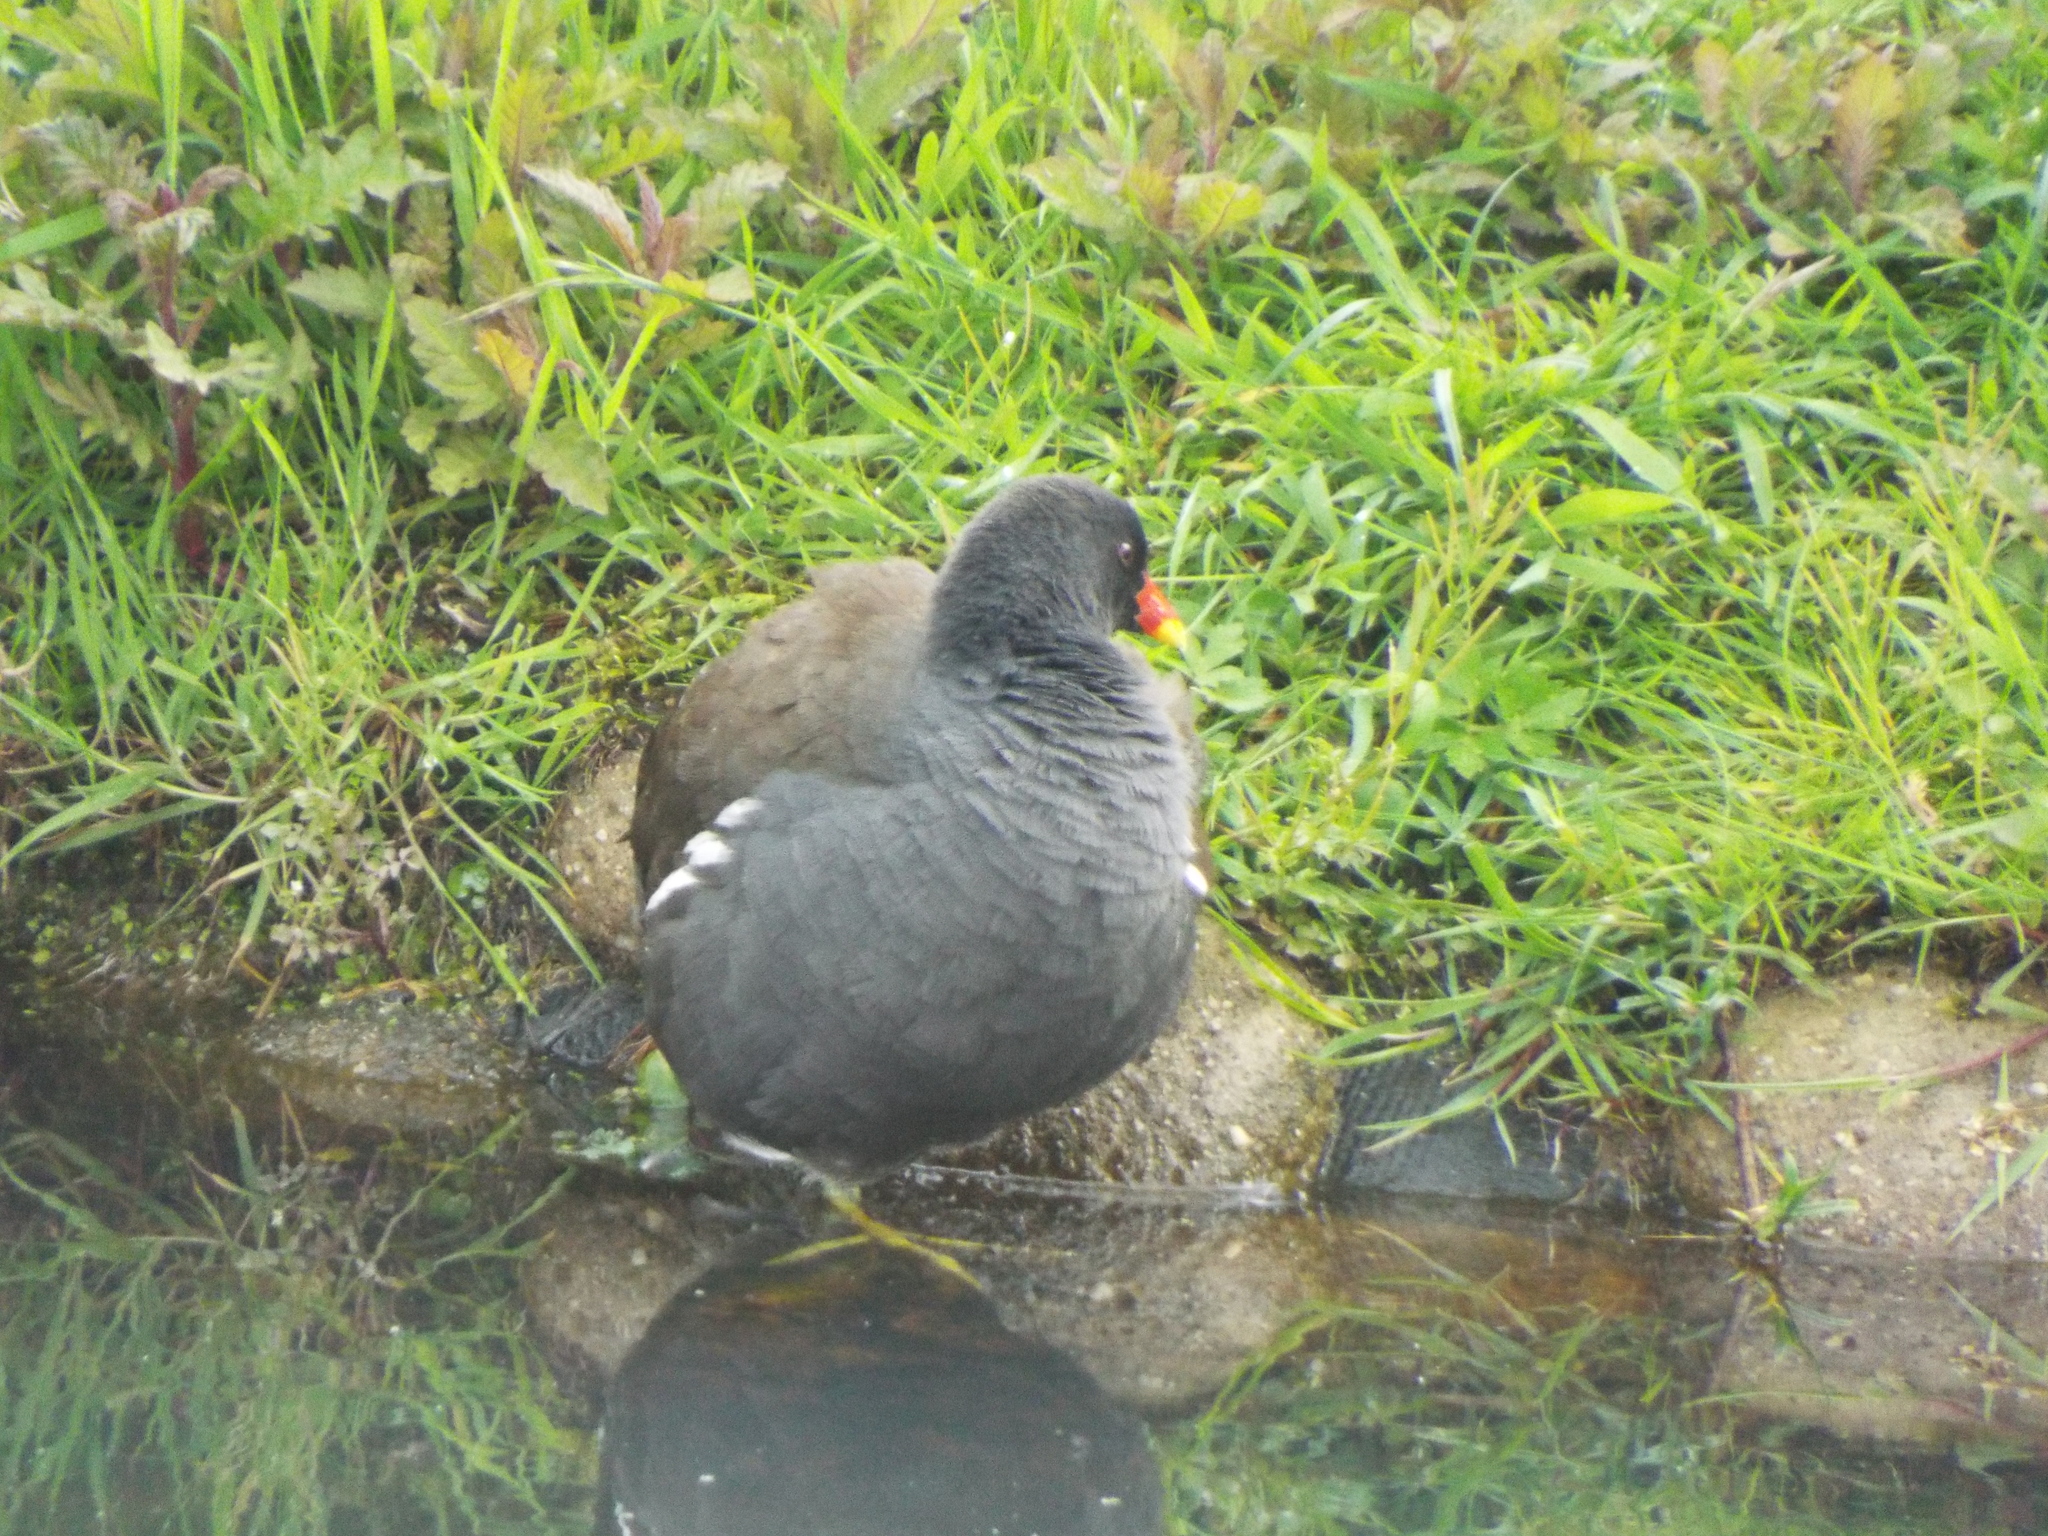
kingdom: Animalia
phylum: Chordata
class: Aves
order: Gruiformes
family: Rallidae
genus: Gallinula
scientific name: Gallinula chloropus
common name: Common moorhen
